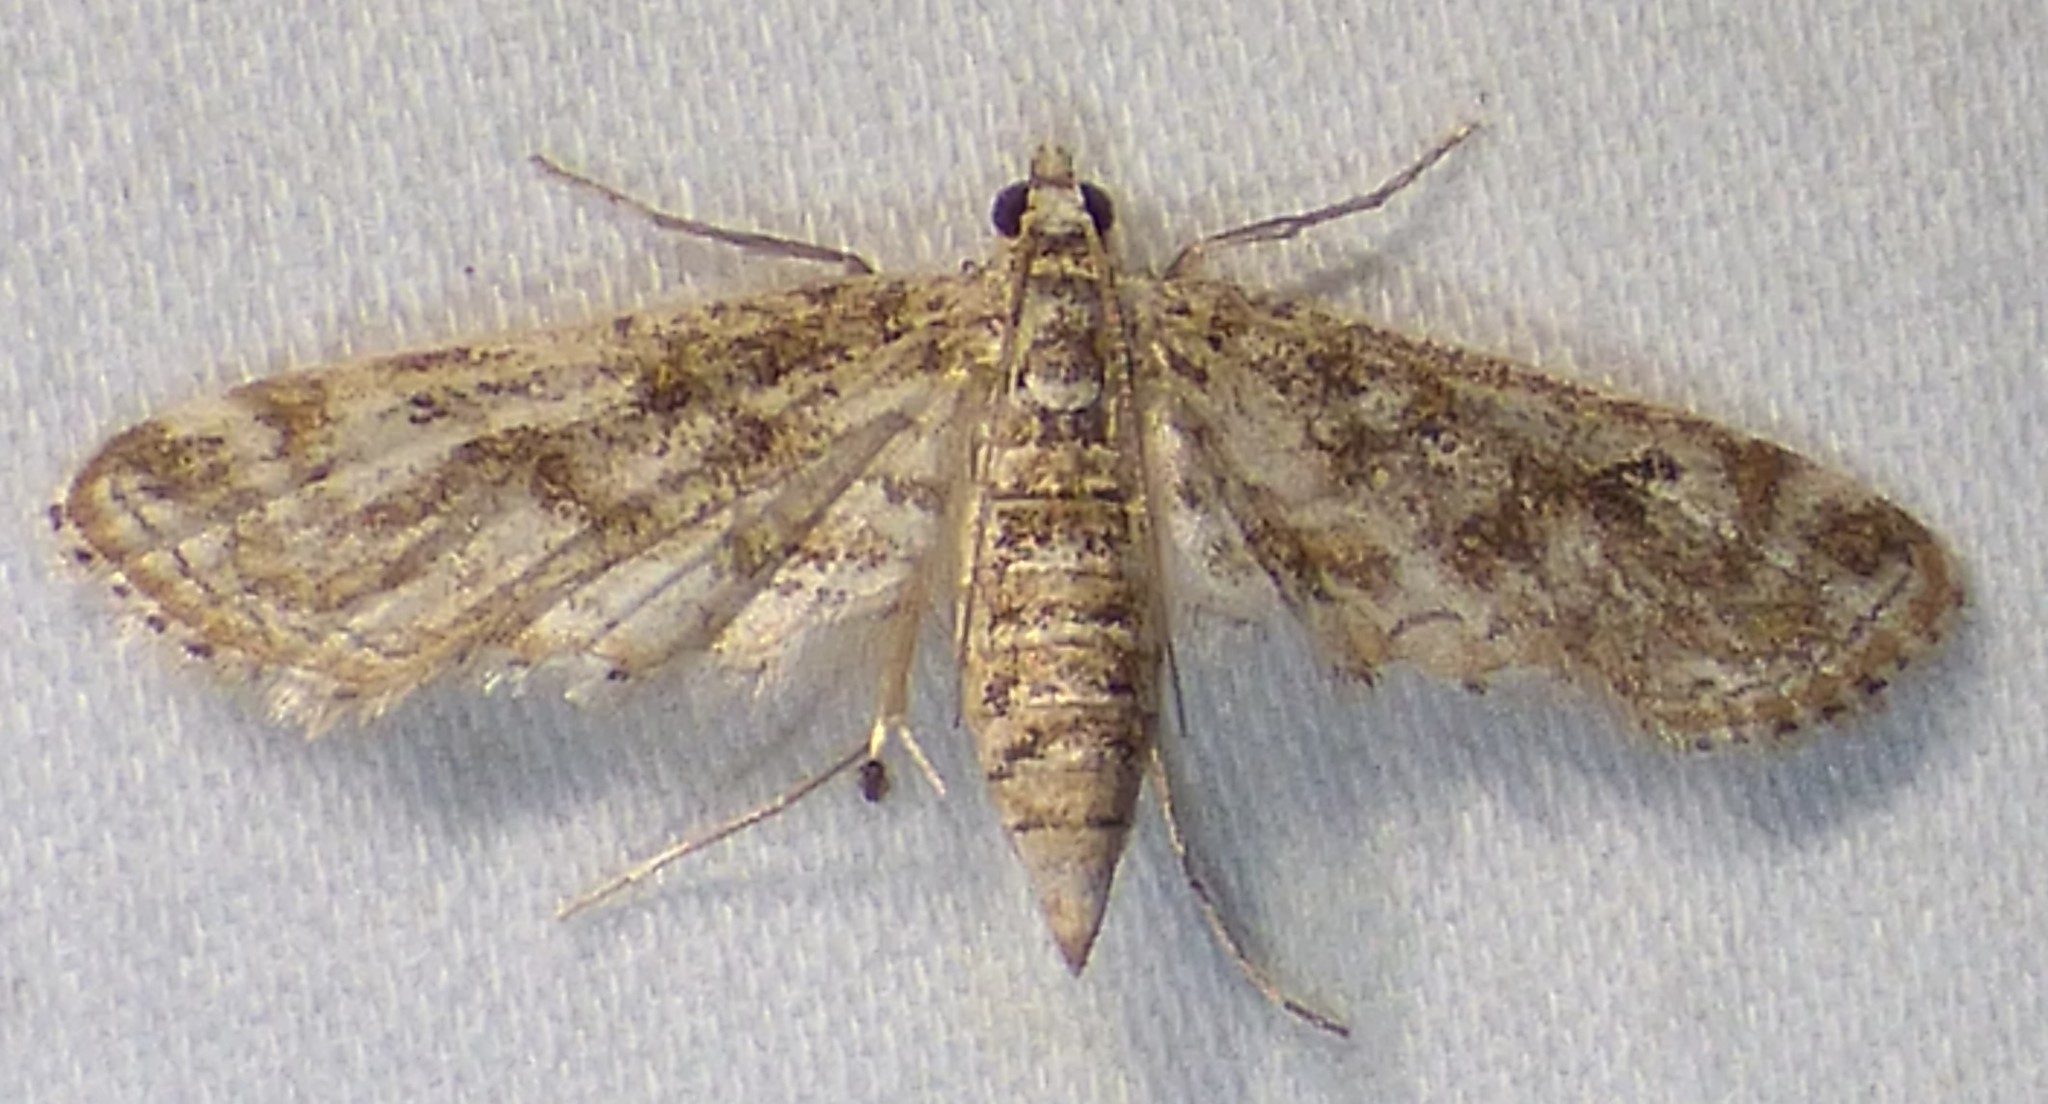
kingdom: Animalia
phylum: Arthropoda
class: Insecta
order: Lepidoptera
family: Crambidae
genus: Parapoynx
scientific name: Parapoynx diminutalis
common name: Hydrilla leafcutter
